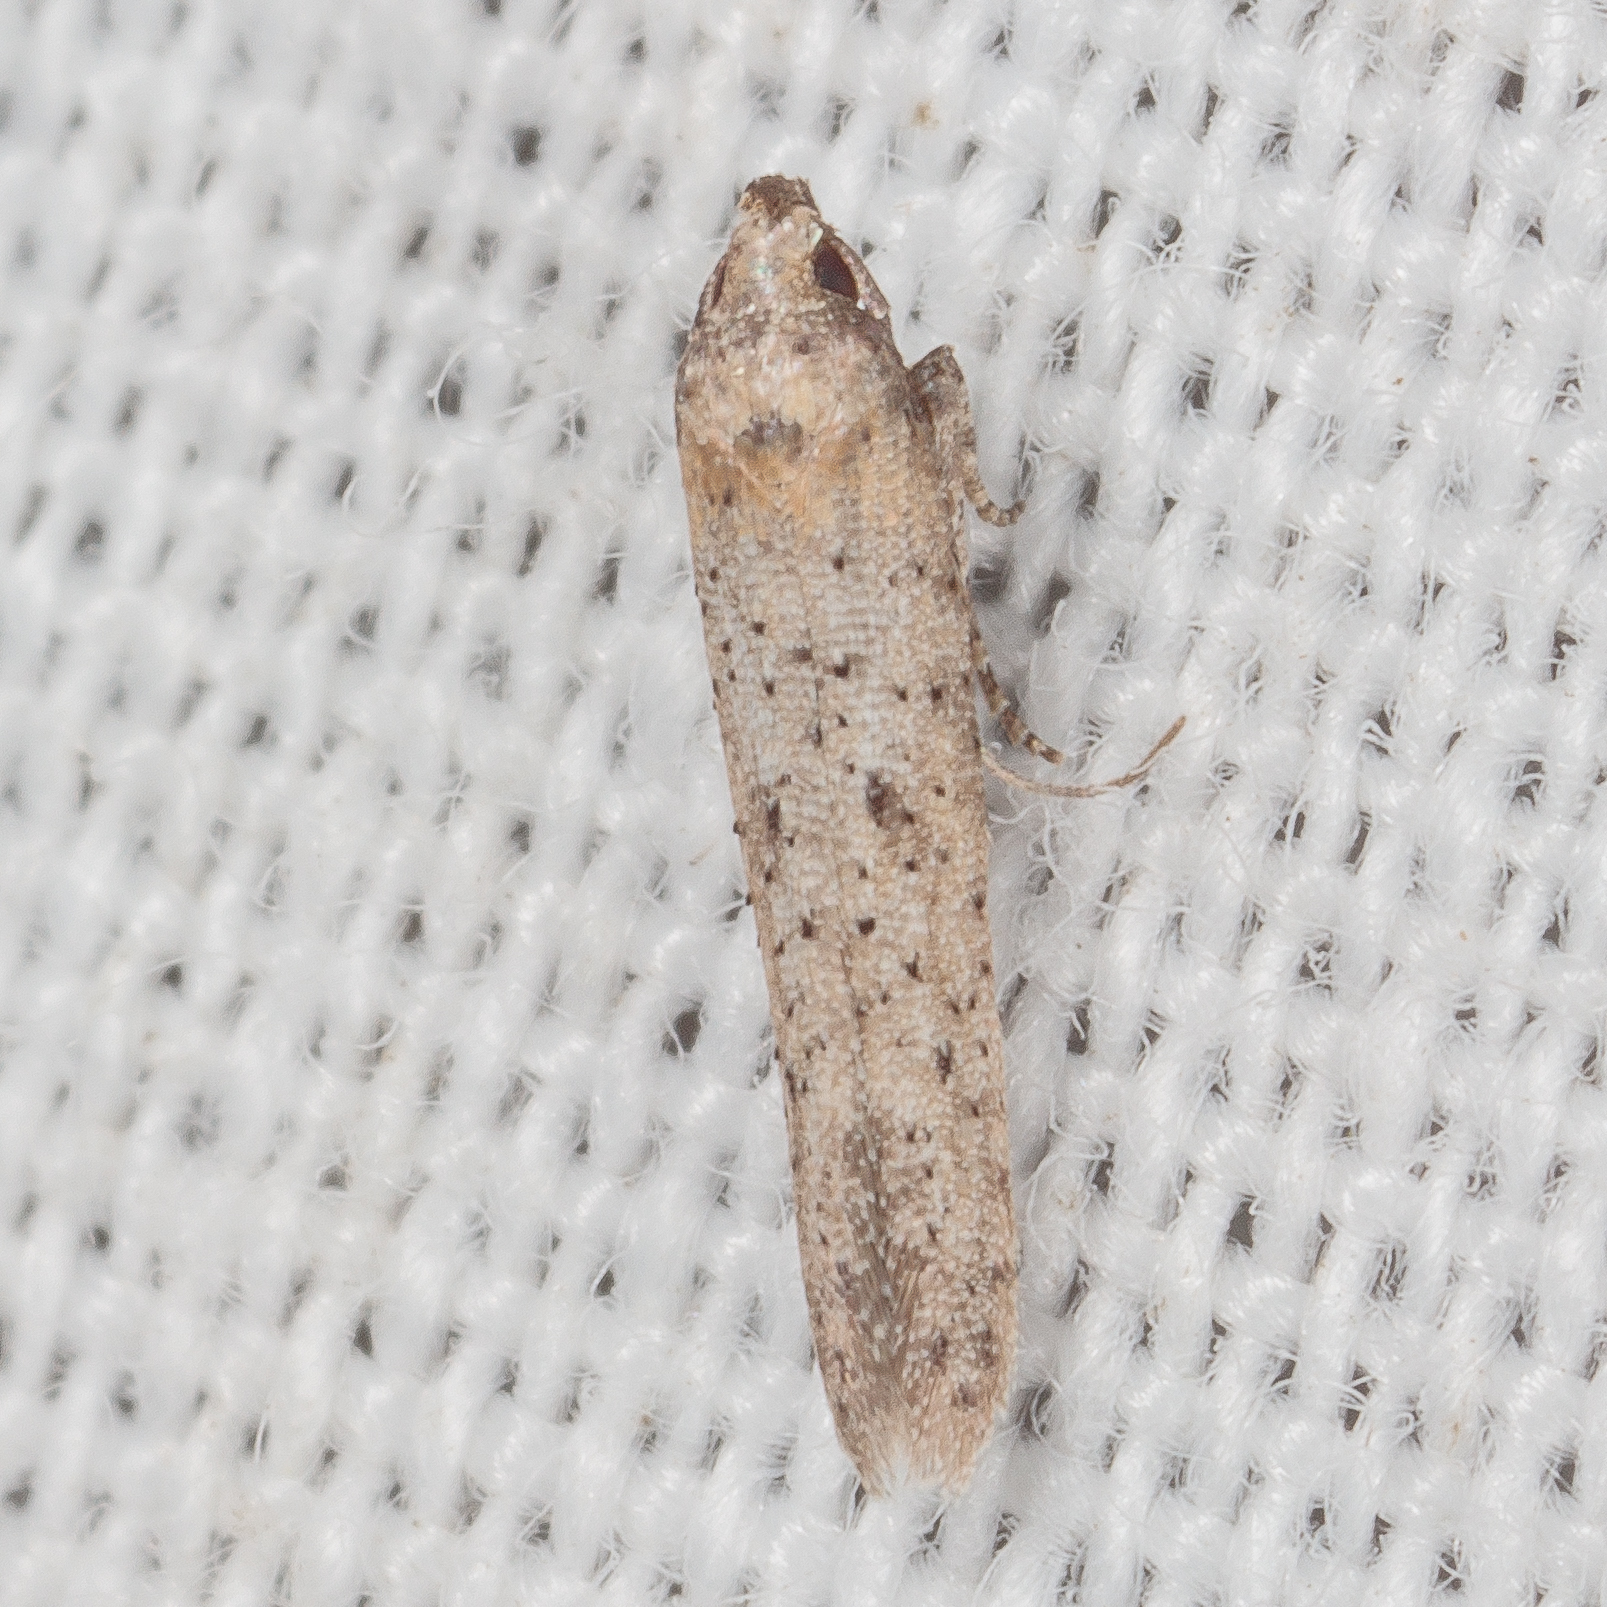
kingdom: Animalia
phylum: Arthropoda
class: Insecta
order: Lepidoptera
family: Cosmopterigidae
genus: Obithome
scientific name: Obithome punctiferella
